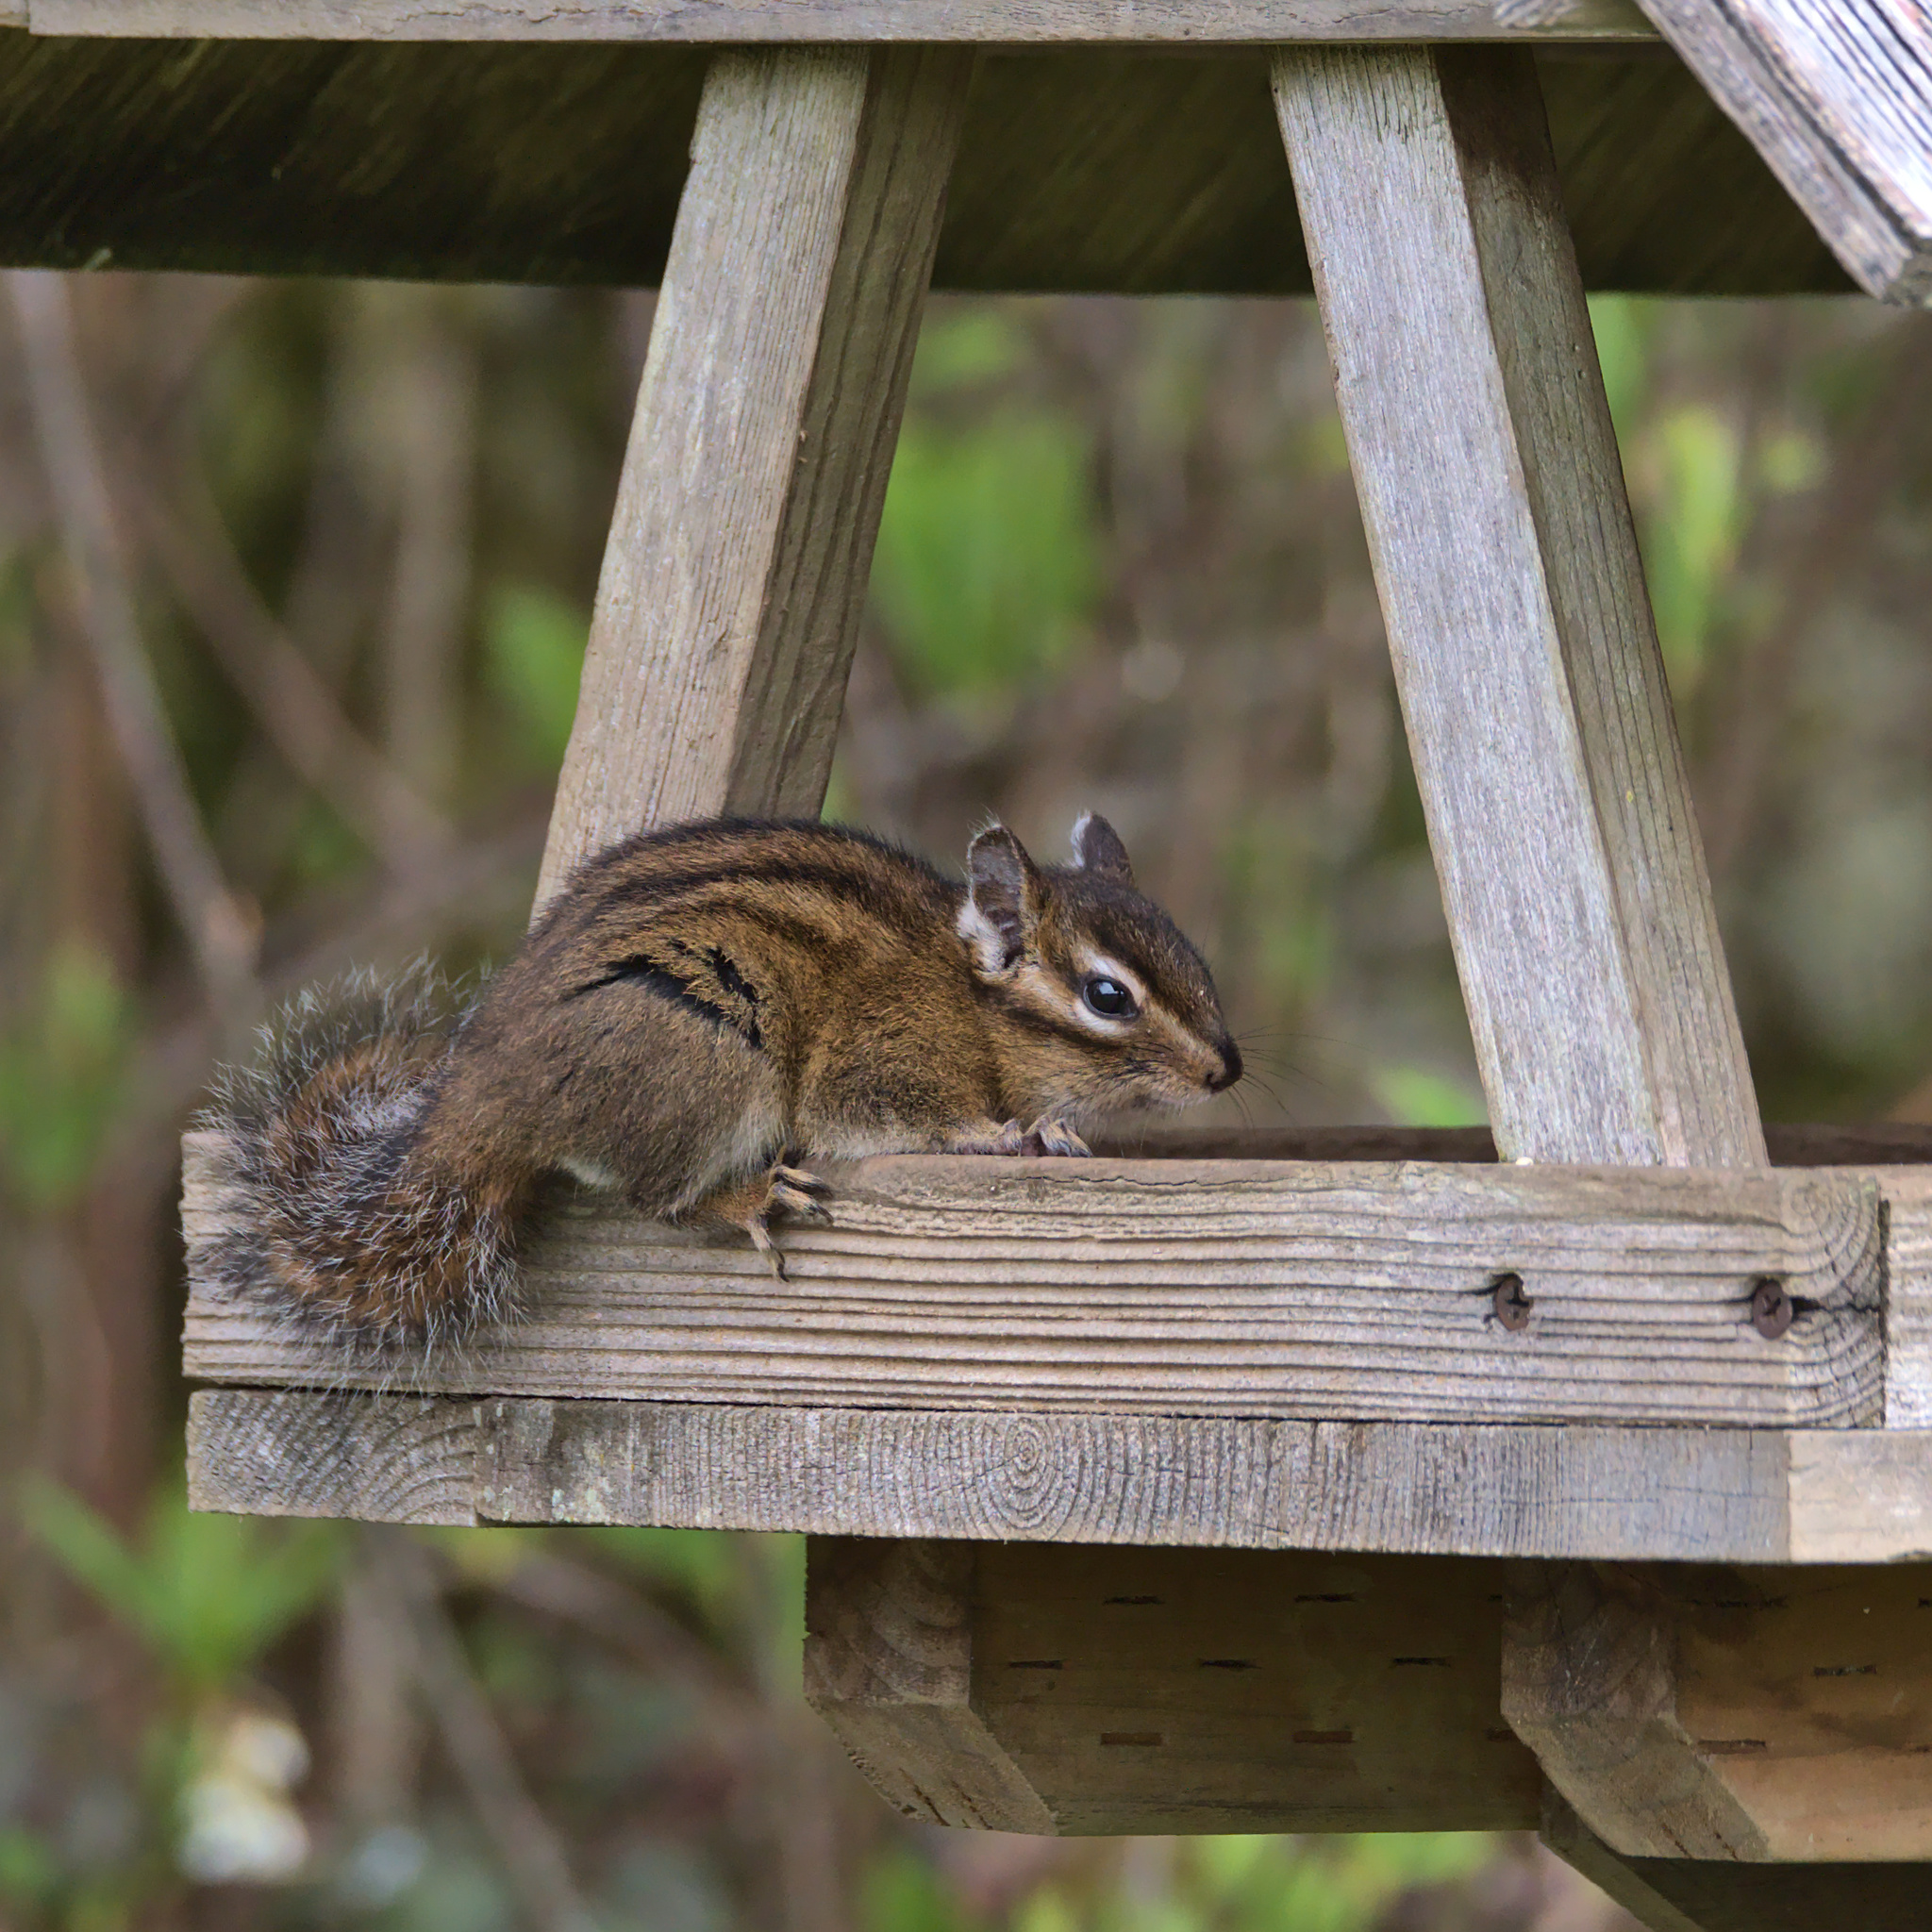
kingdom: Animalia
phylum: Chordata
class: Mammalia
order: Rodentia
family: Sciuridae
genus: Tamias
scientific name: Tamias townsendii
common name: Townsend's chipmunk
